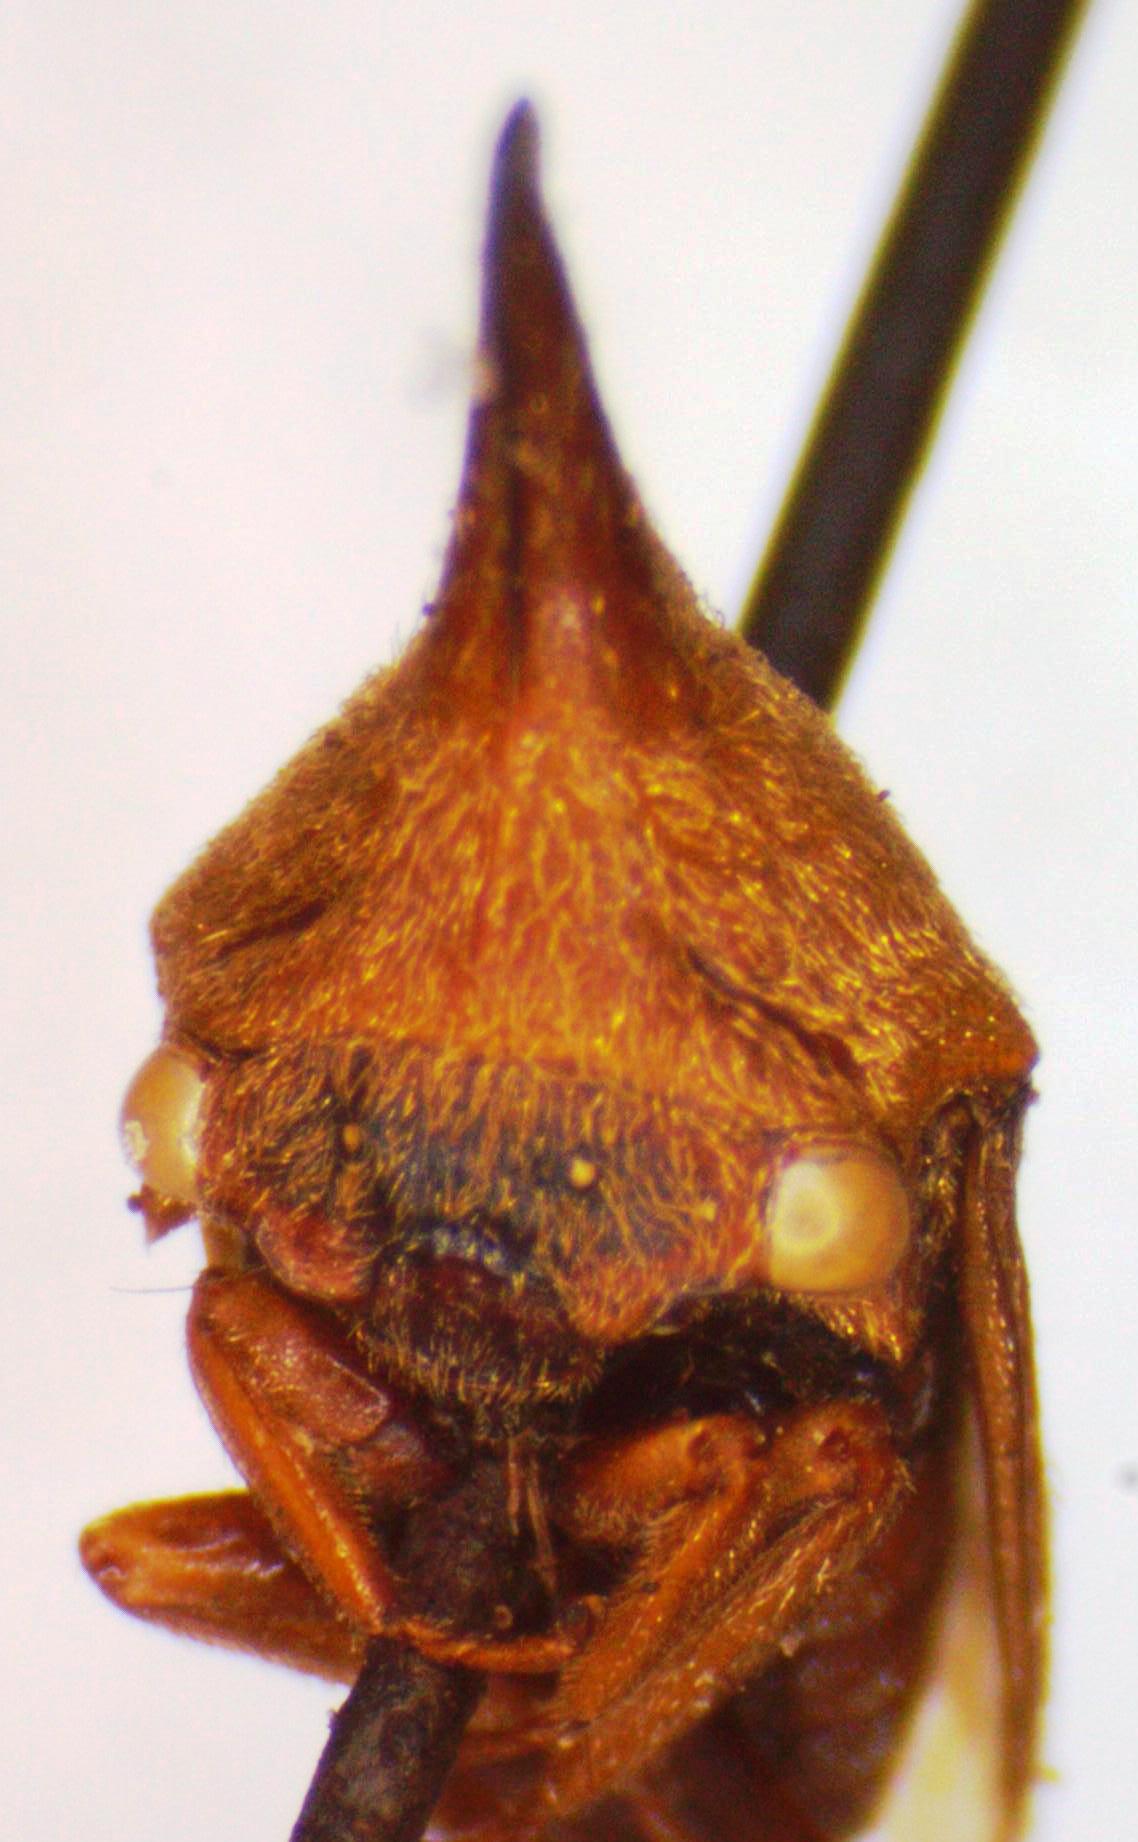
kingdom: Animalia
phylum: Arthropoda
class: Insecta
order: Hemiptera
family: Membracidae
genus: Guayaquila
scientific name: Guayaquila emarginata
